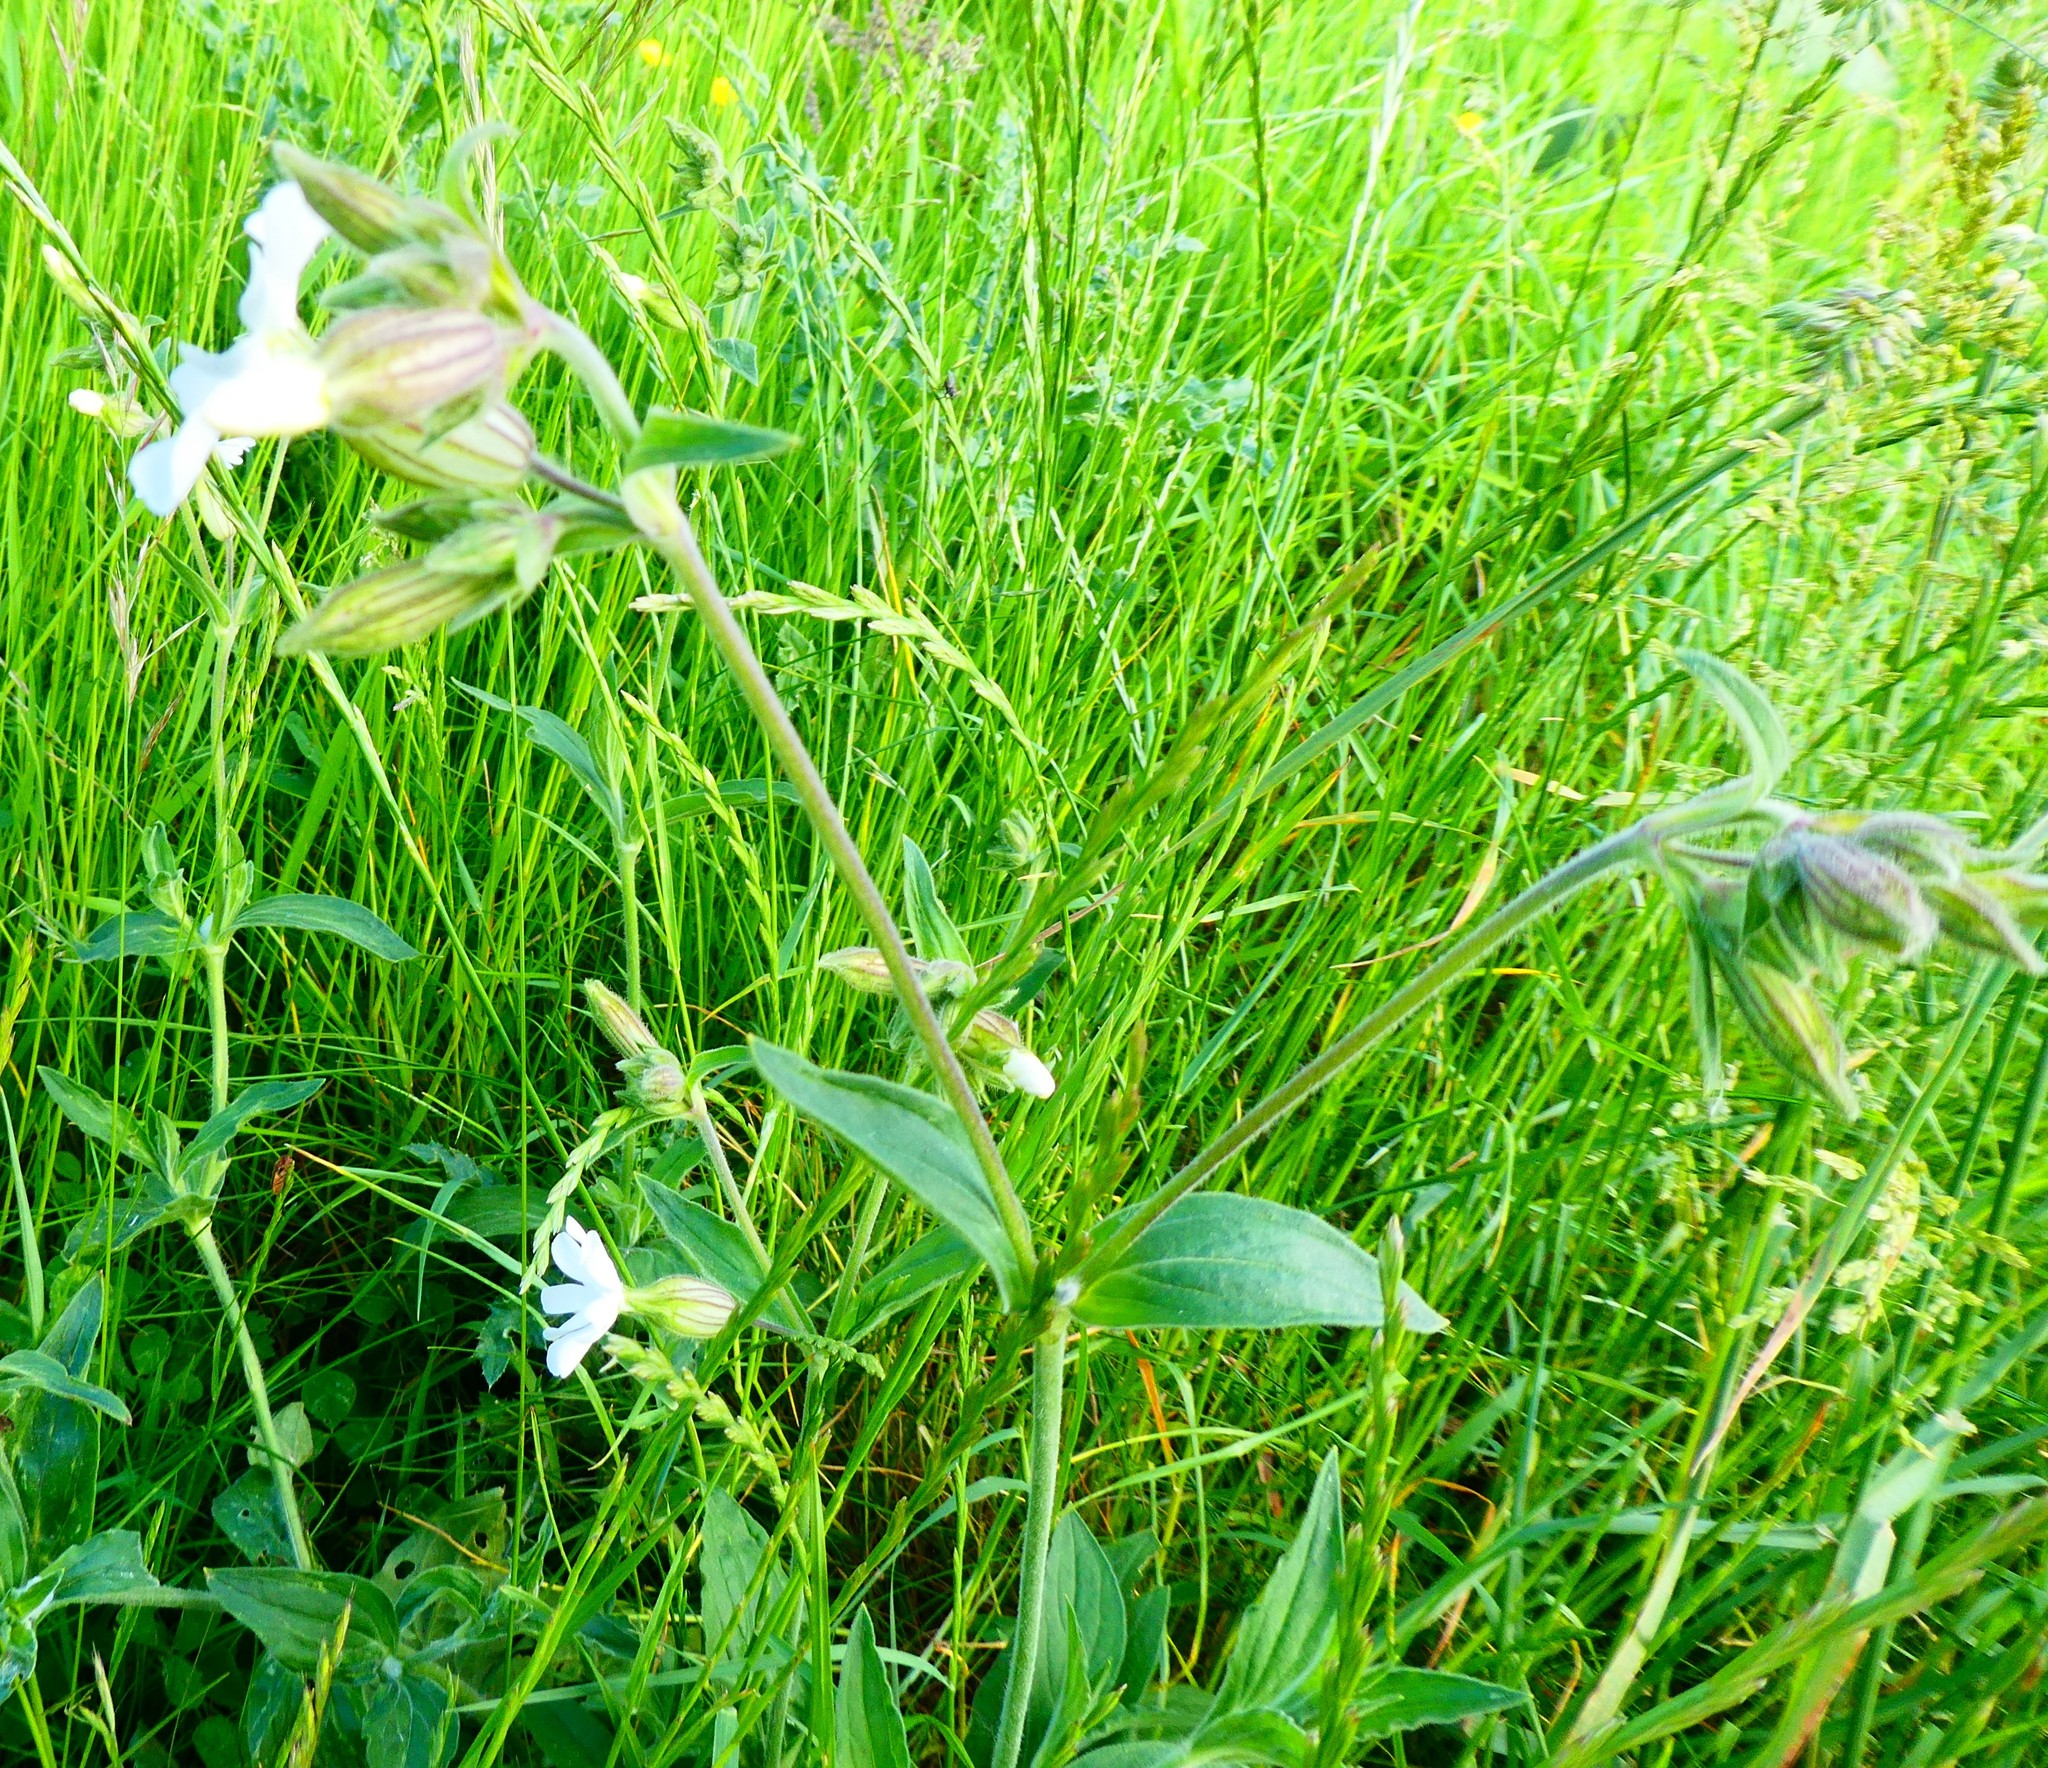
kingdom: Plantae
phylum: Tracheophyta
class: Magnoliopsida
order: Caryophyllales
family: Caryophyllaceae
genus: Silene
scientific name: Silene latifolia
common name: White campion
